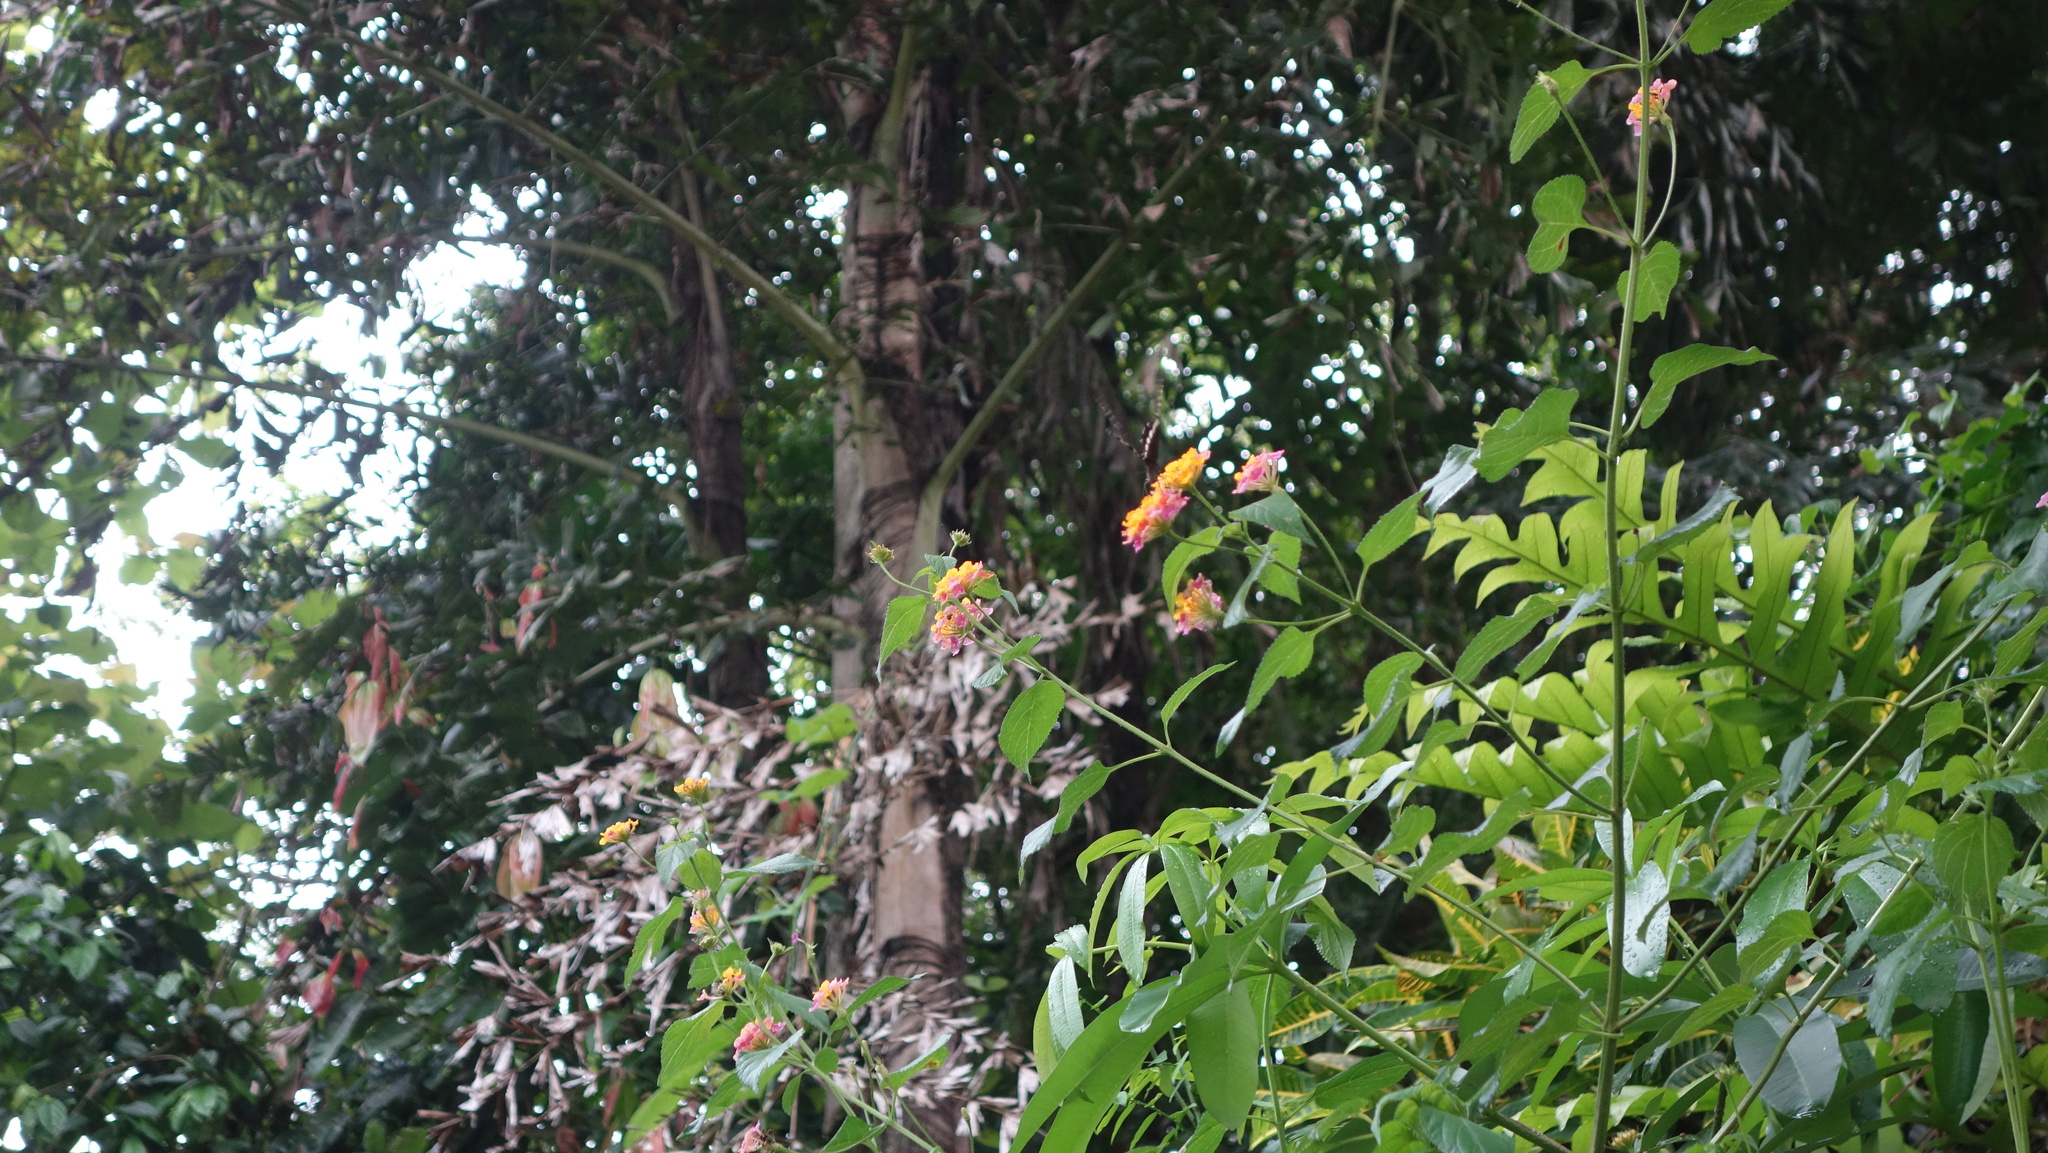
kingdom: Plantae
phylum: Tracheophyta
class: Magnoliopsida
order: Lamiales
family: Verbenaceae
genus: Lantana
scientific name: Lantana camara
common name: Lantana
